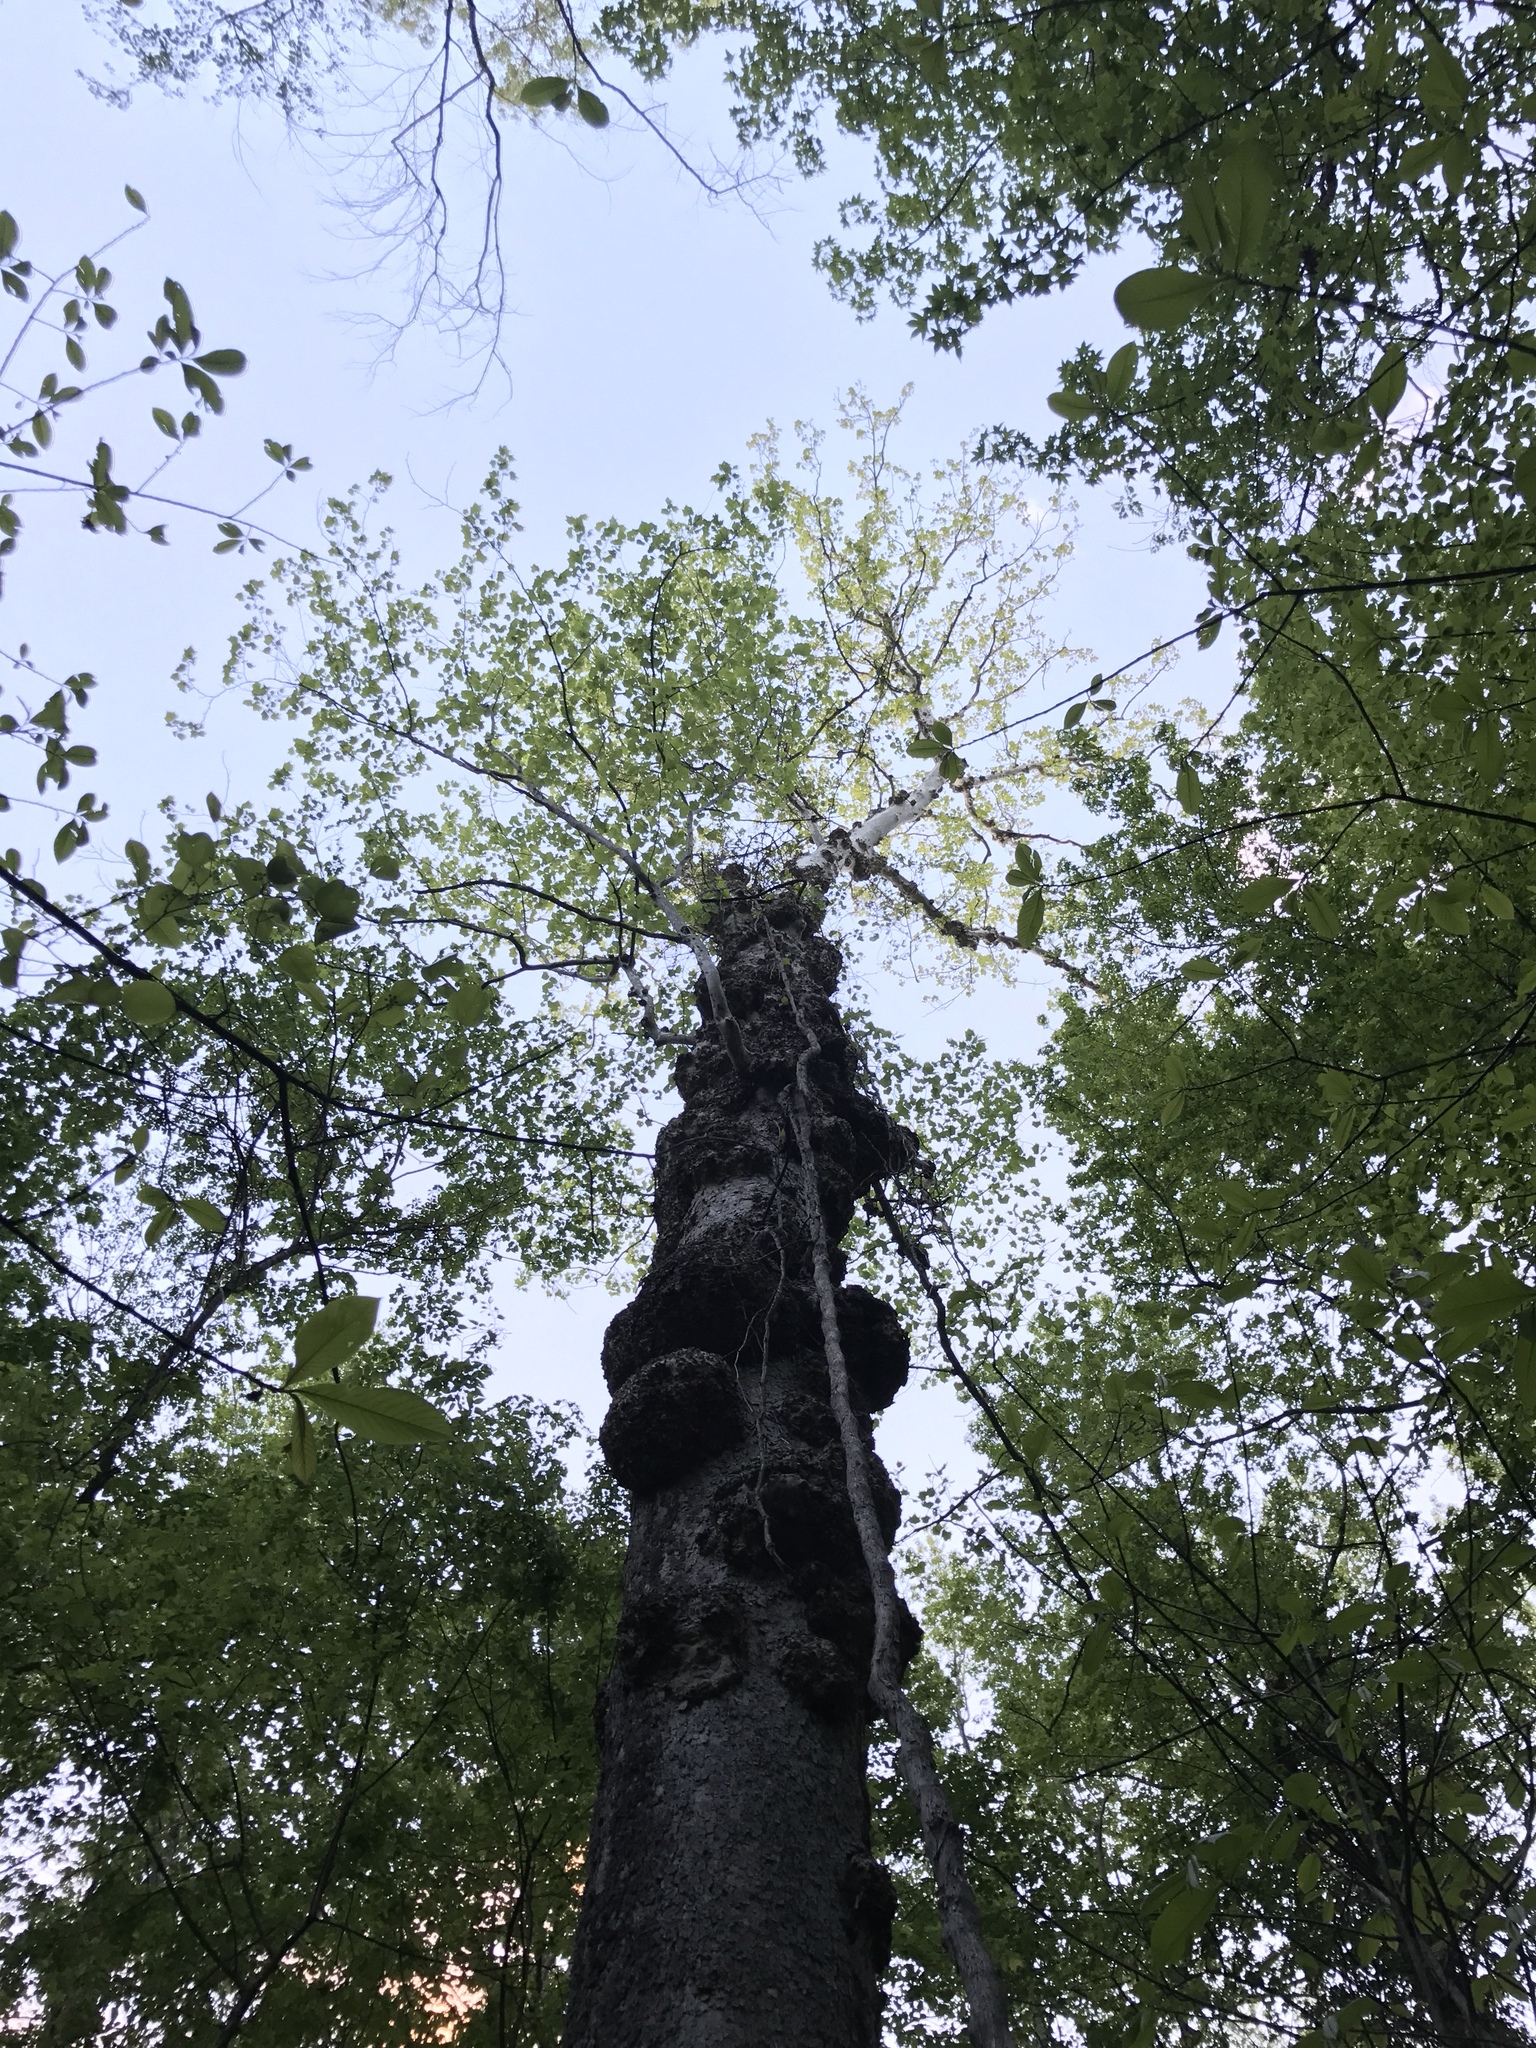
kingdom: Plantae
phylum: Tracheophyta
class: Magnoliopsida
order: Proteales
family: Platanaceae
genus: Platanus
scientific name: Platanus occidentalis
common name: American sycamore
